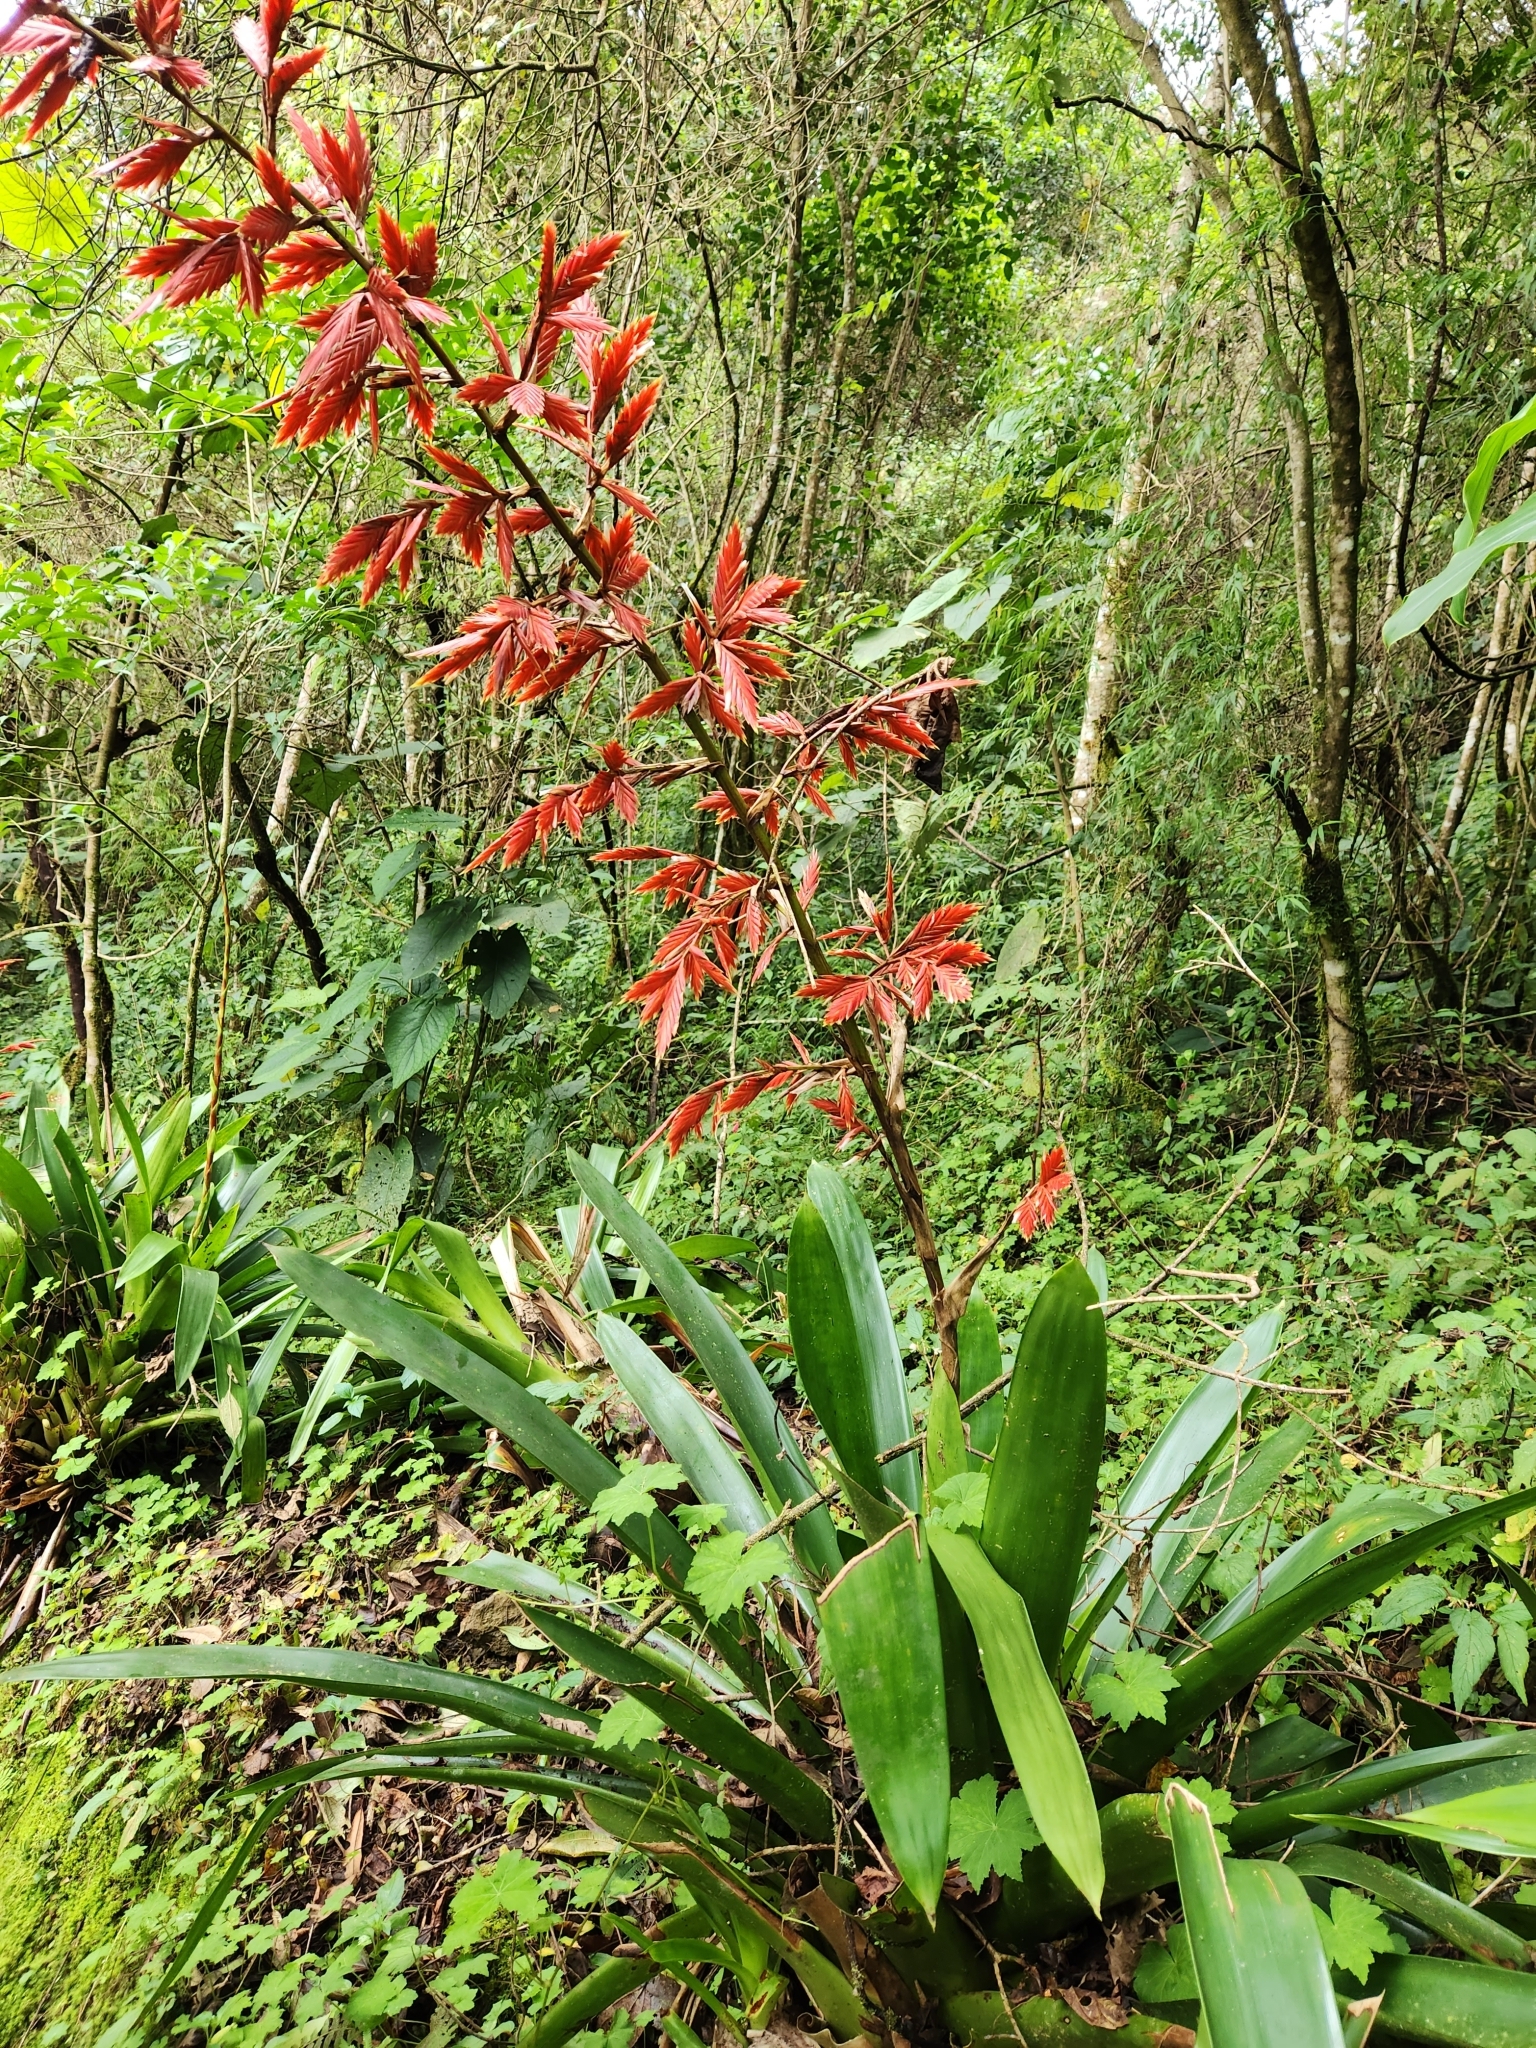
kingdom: Plantae
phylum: Tracheophyta
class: Liliopsida
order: Poales
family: Bromeliaceae
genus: Vriesea
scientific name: Vriesea elata
